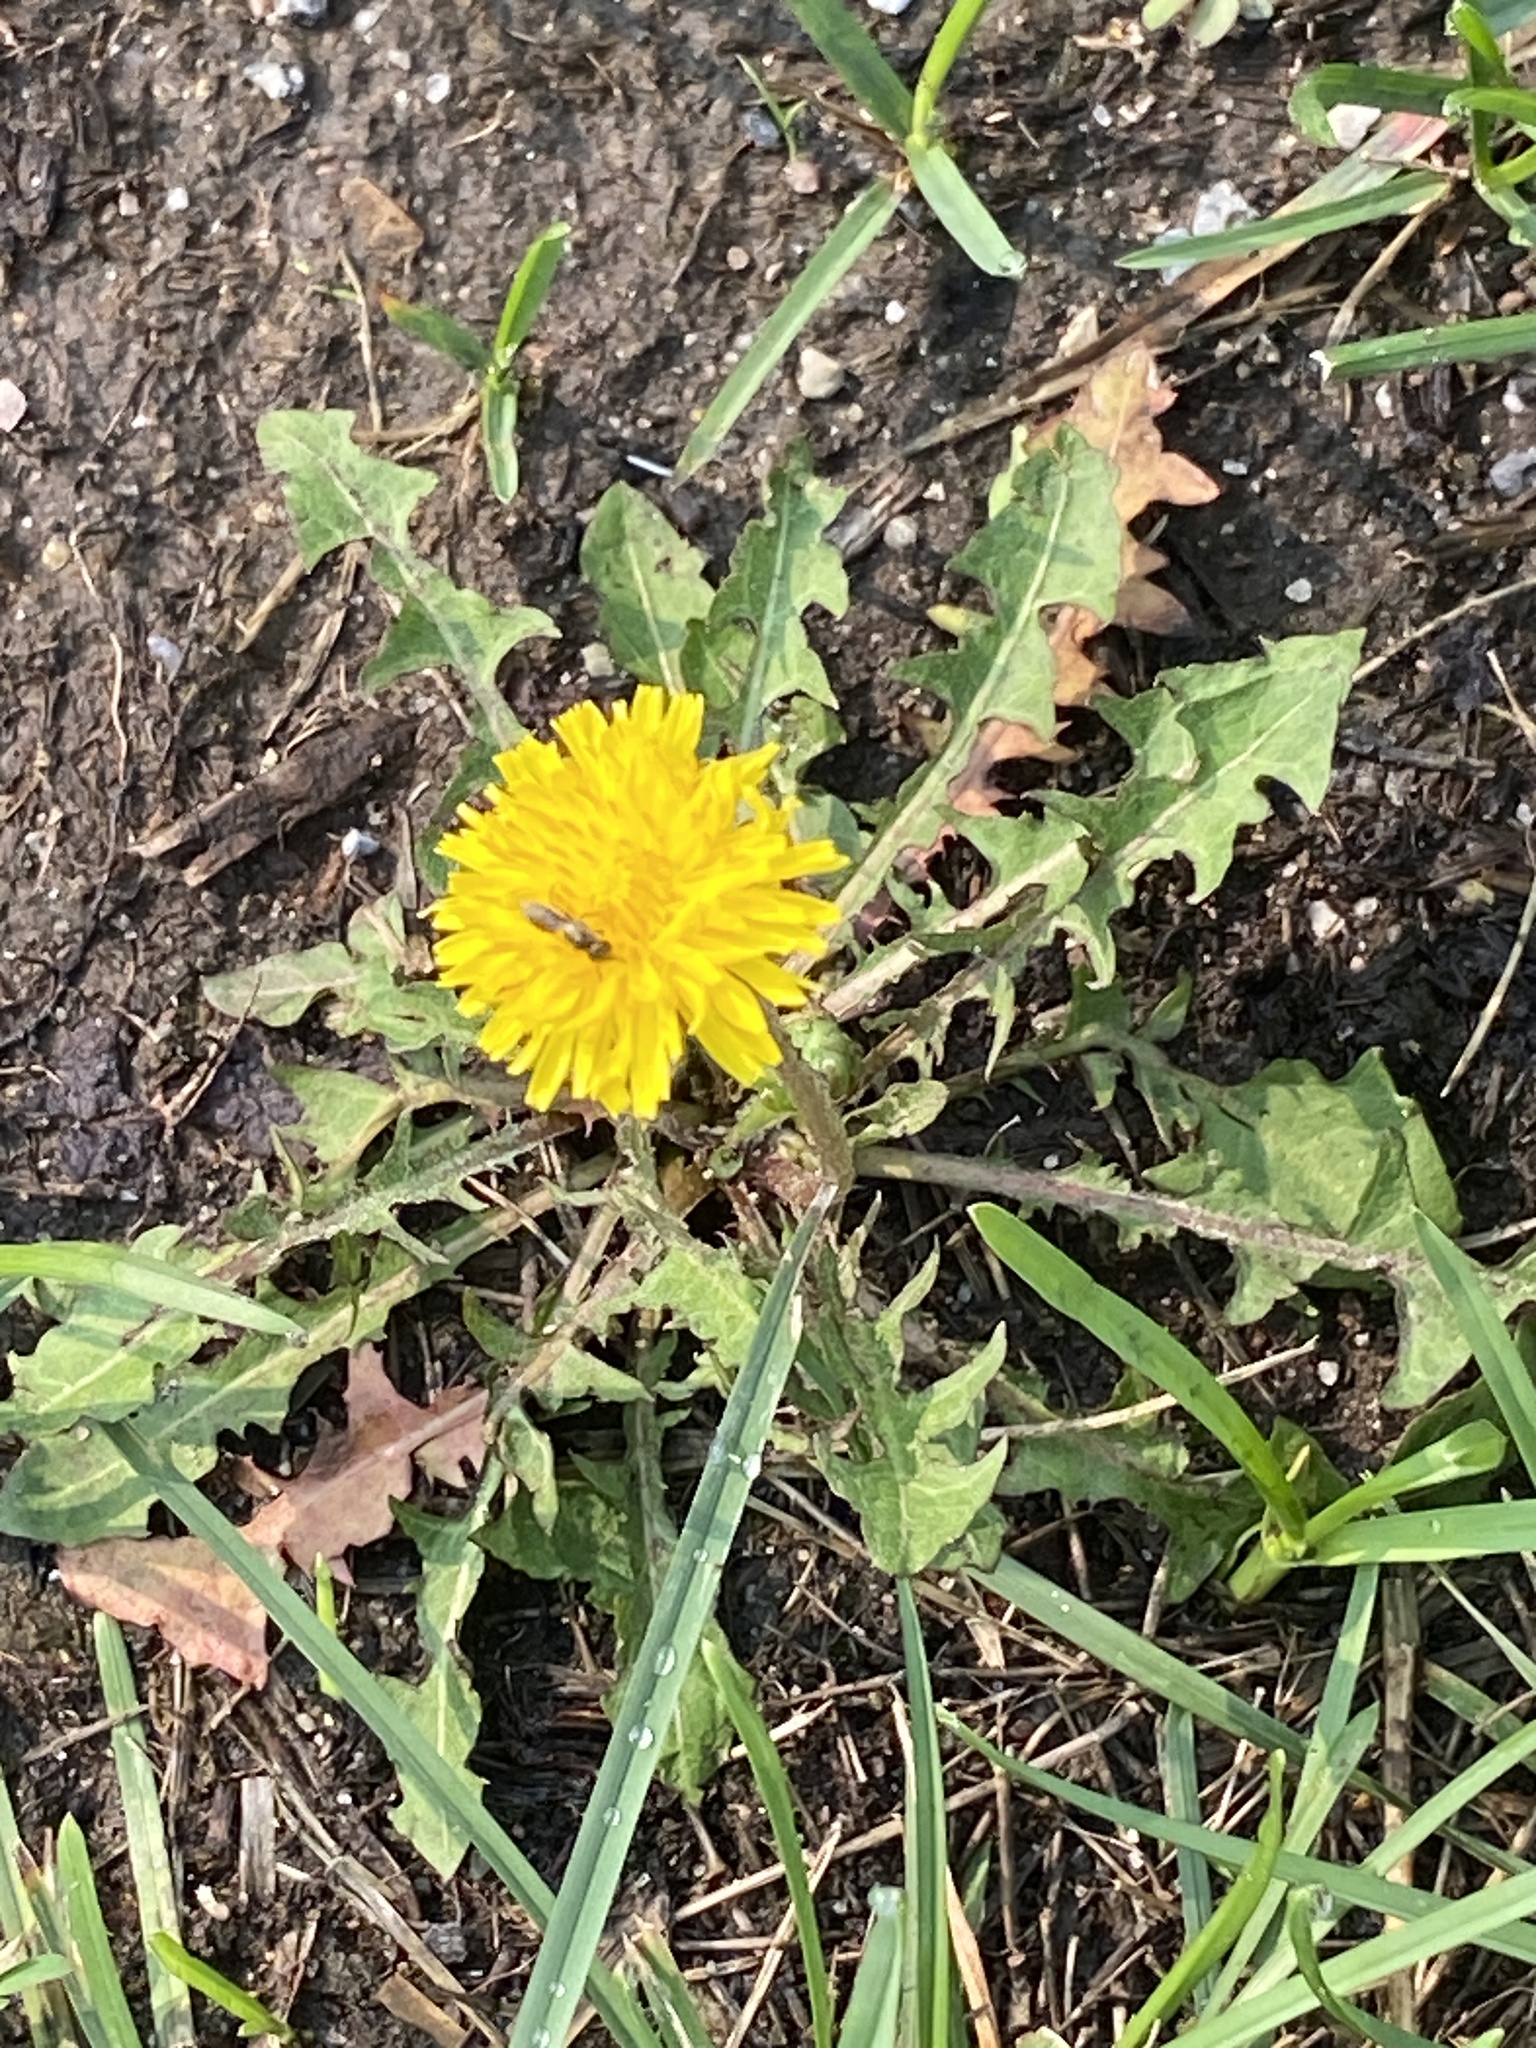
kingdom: Plantae
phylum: Tracheophyta
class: Magnoliopsida
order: Asterales
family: Asteraceae
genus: Taraxacum
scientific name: Taraxacum
